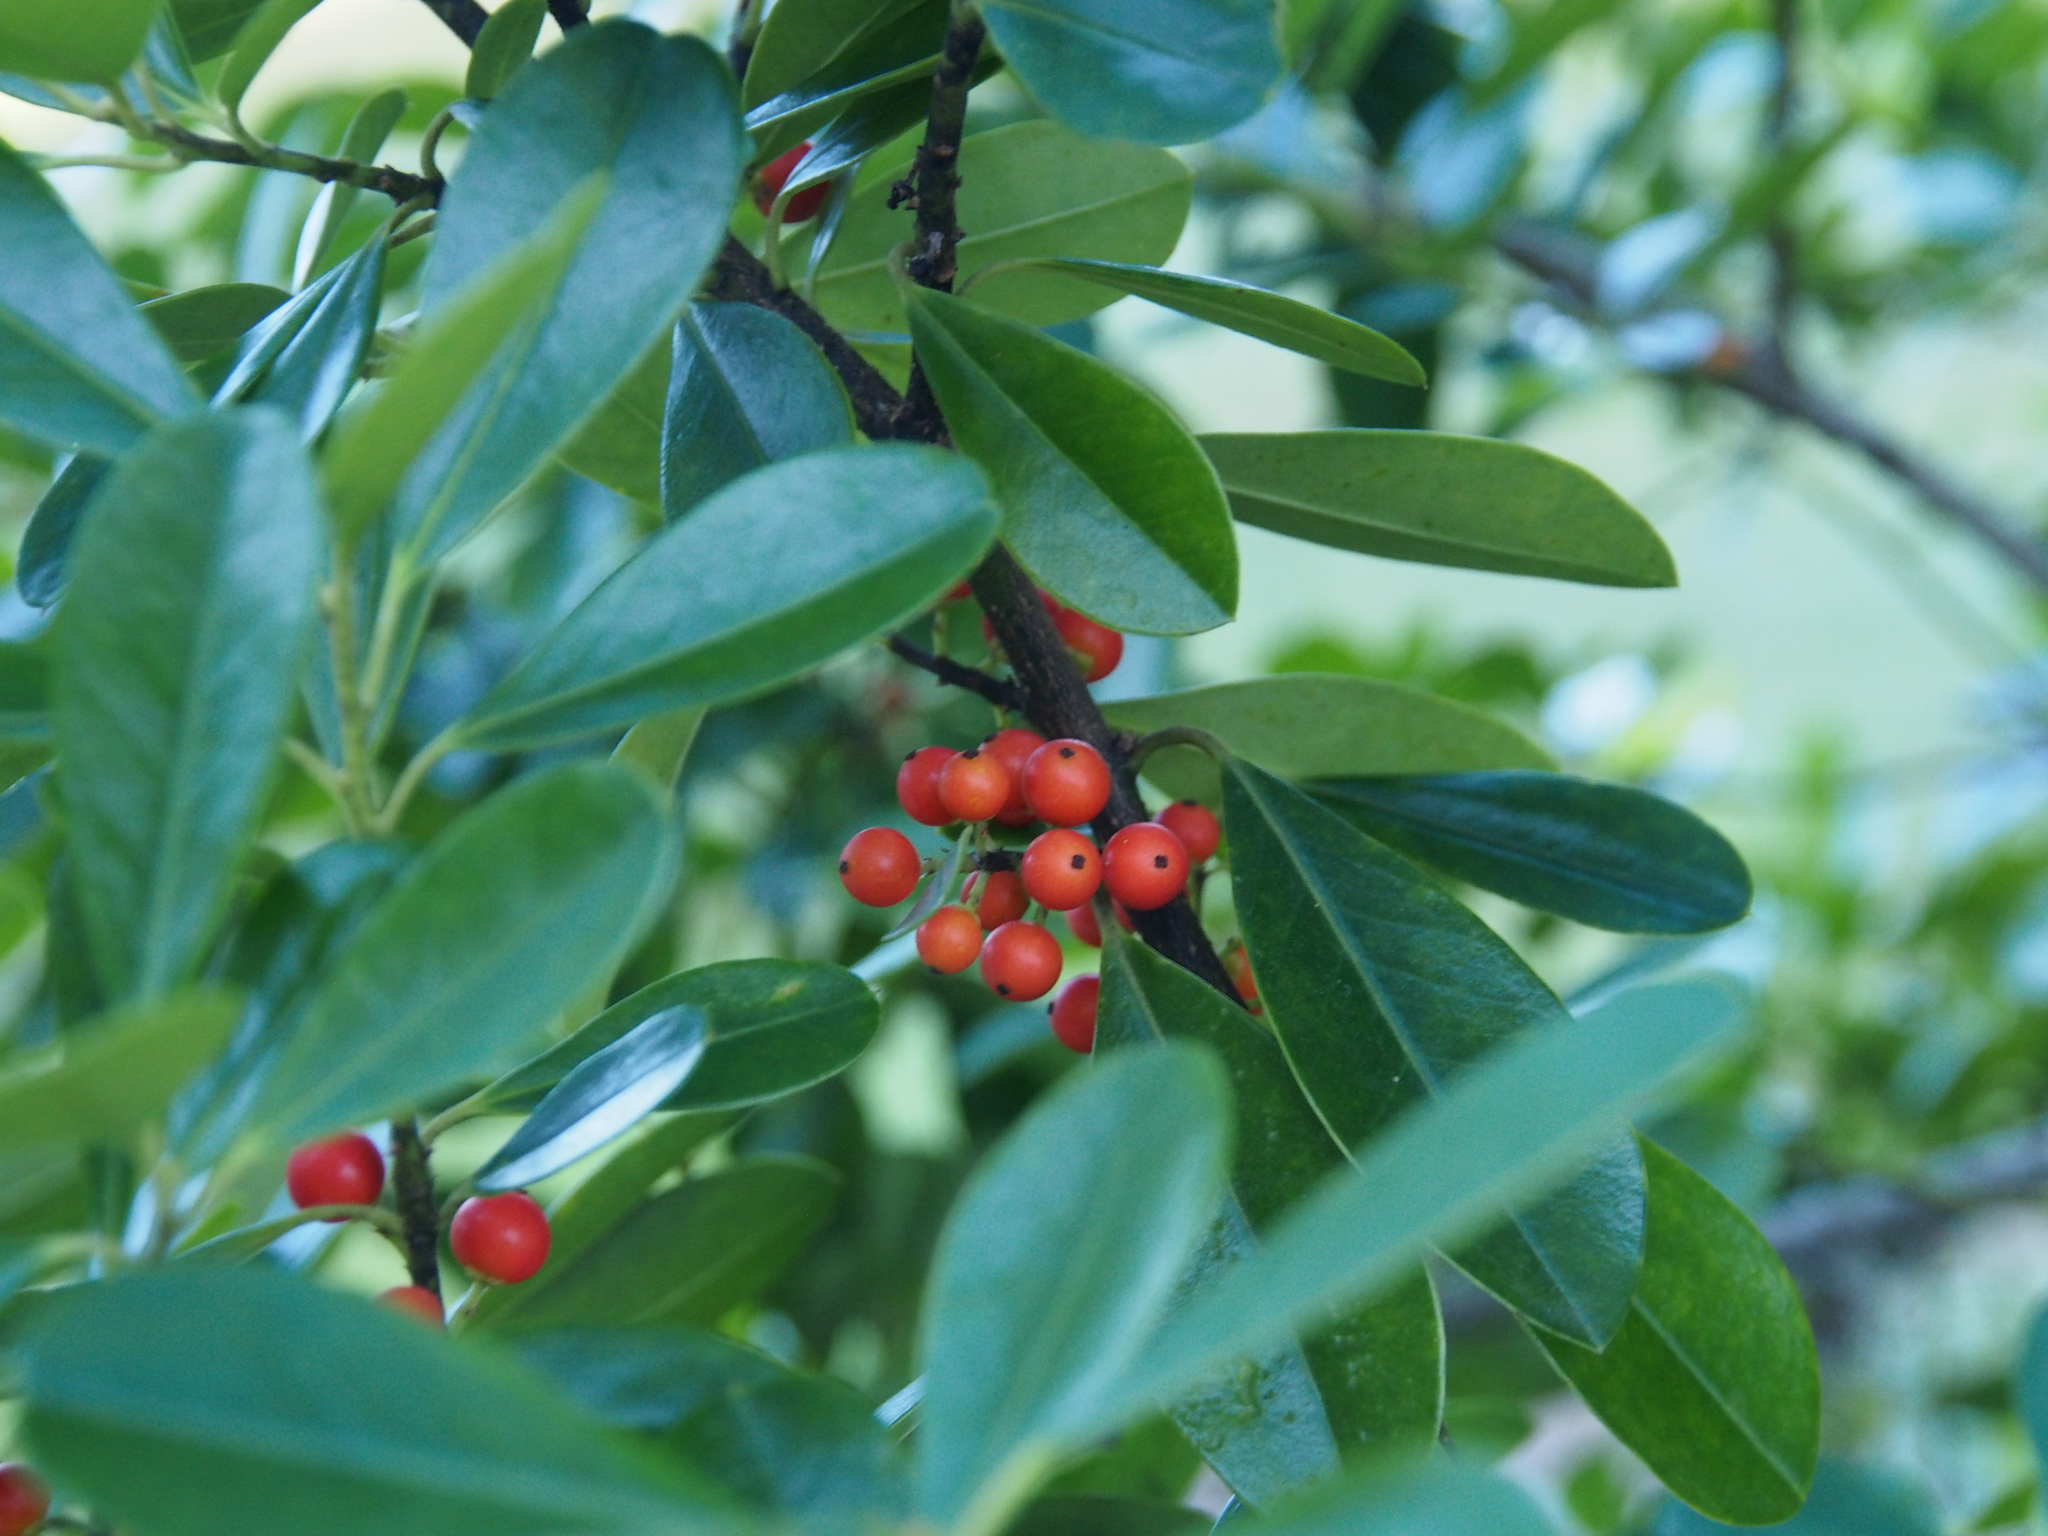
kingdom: Plantae
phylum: Tracheophyta
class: Magnoliopsida
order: Aquifoliales
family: Aquifoliaceae
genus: Ilex
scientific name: Ilex cassine
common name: Dahoon
